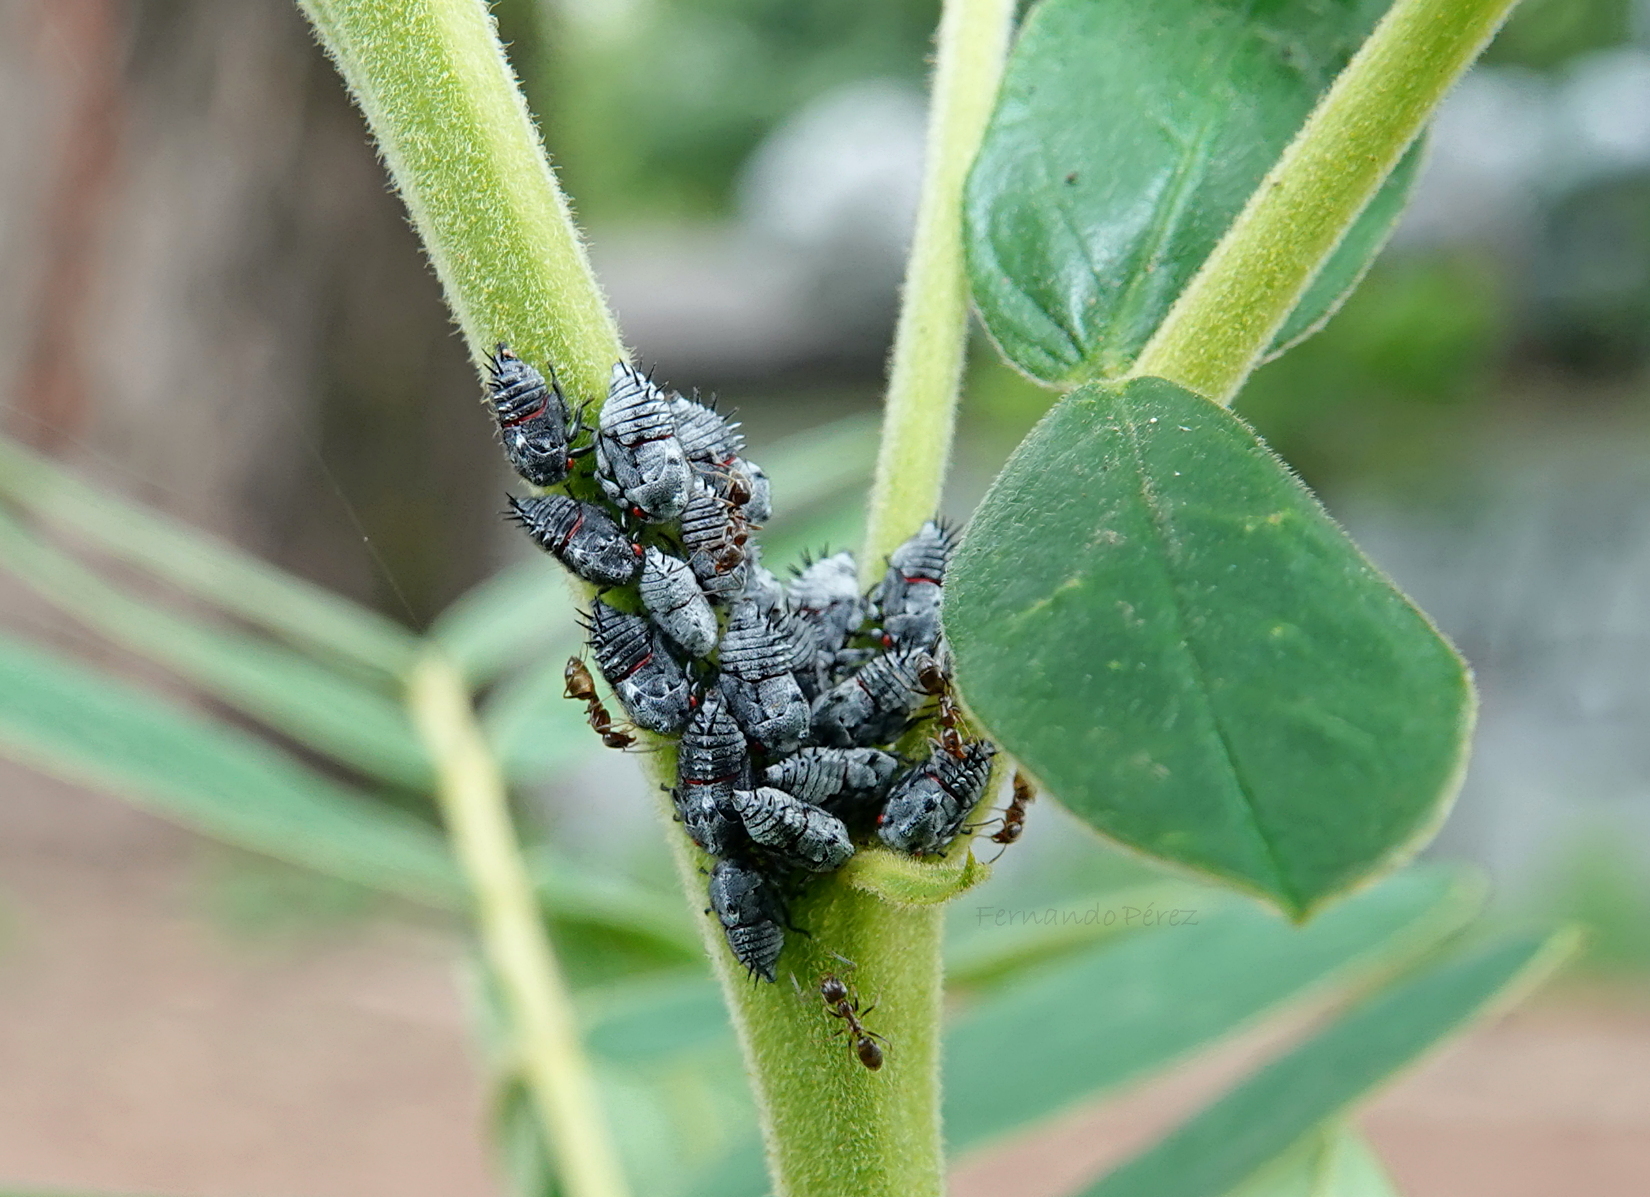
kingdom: Animalia
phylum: Arthropoda
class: Insecta
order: Hemiptera
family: Membracidae
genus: Enchenopa
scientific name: Enchenopa quadricolor
